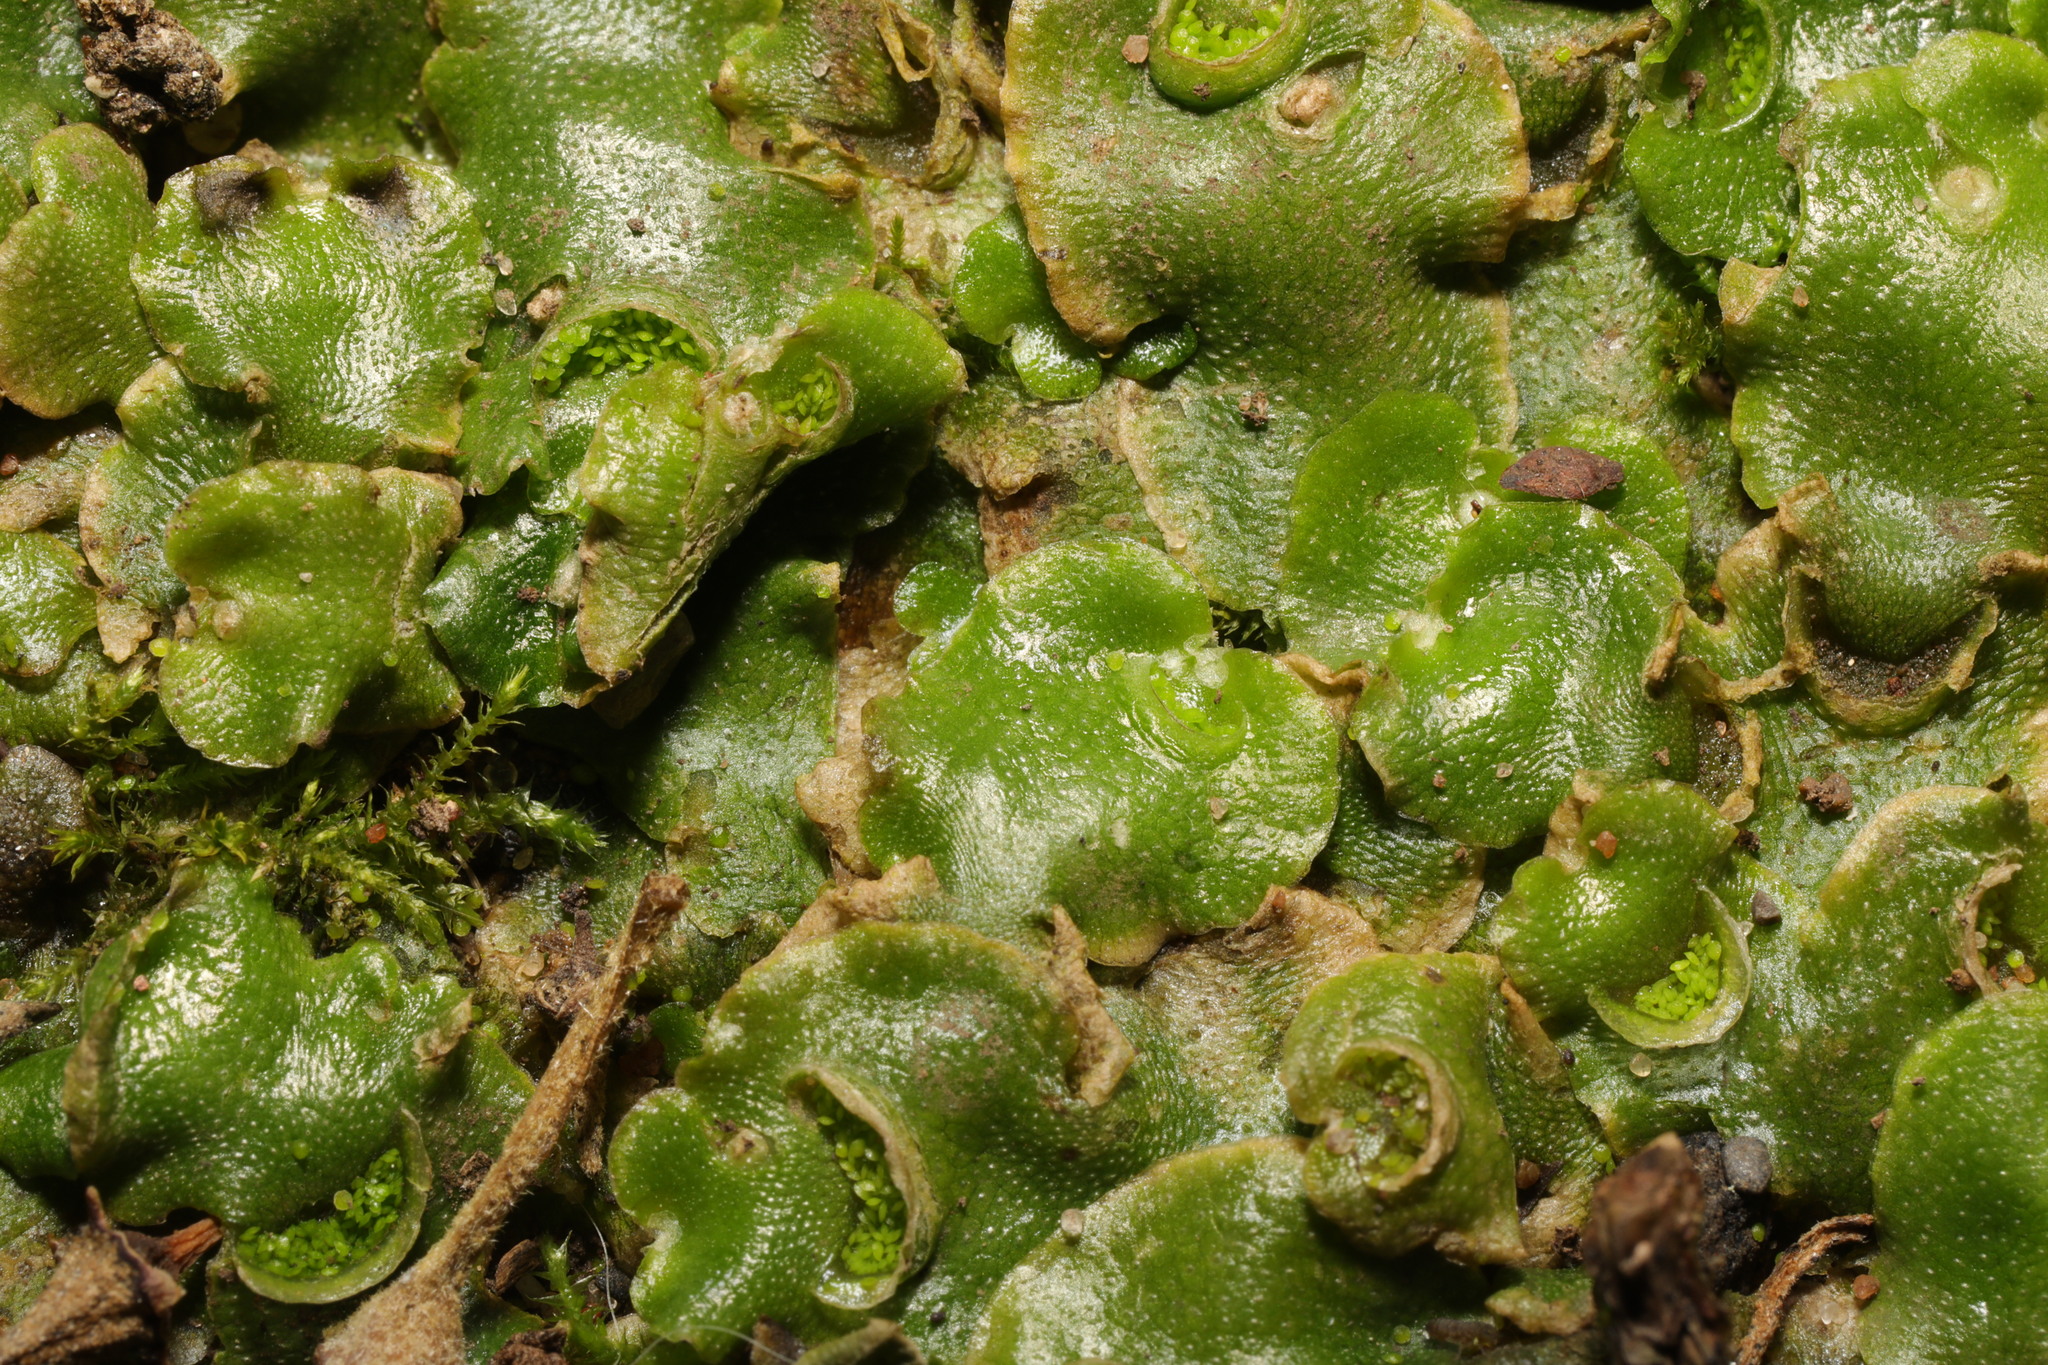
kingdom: Plantae
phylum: Marchantiophyta
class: Marchantiopsida
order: Lunulariales
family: Lunulariaceae
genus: Lunularia
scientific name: Lunularia cruciata
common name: Crescent-cup liverwort
